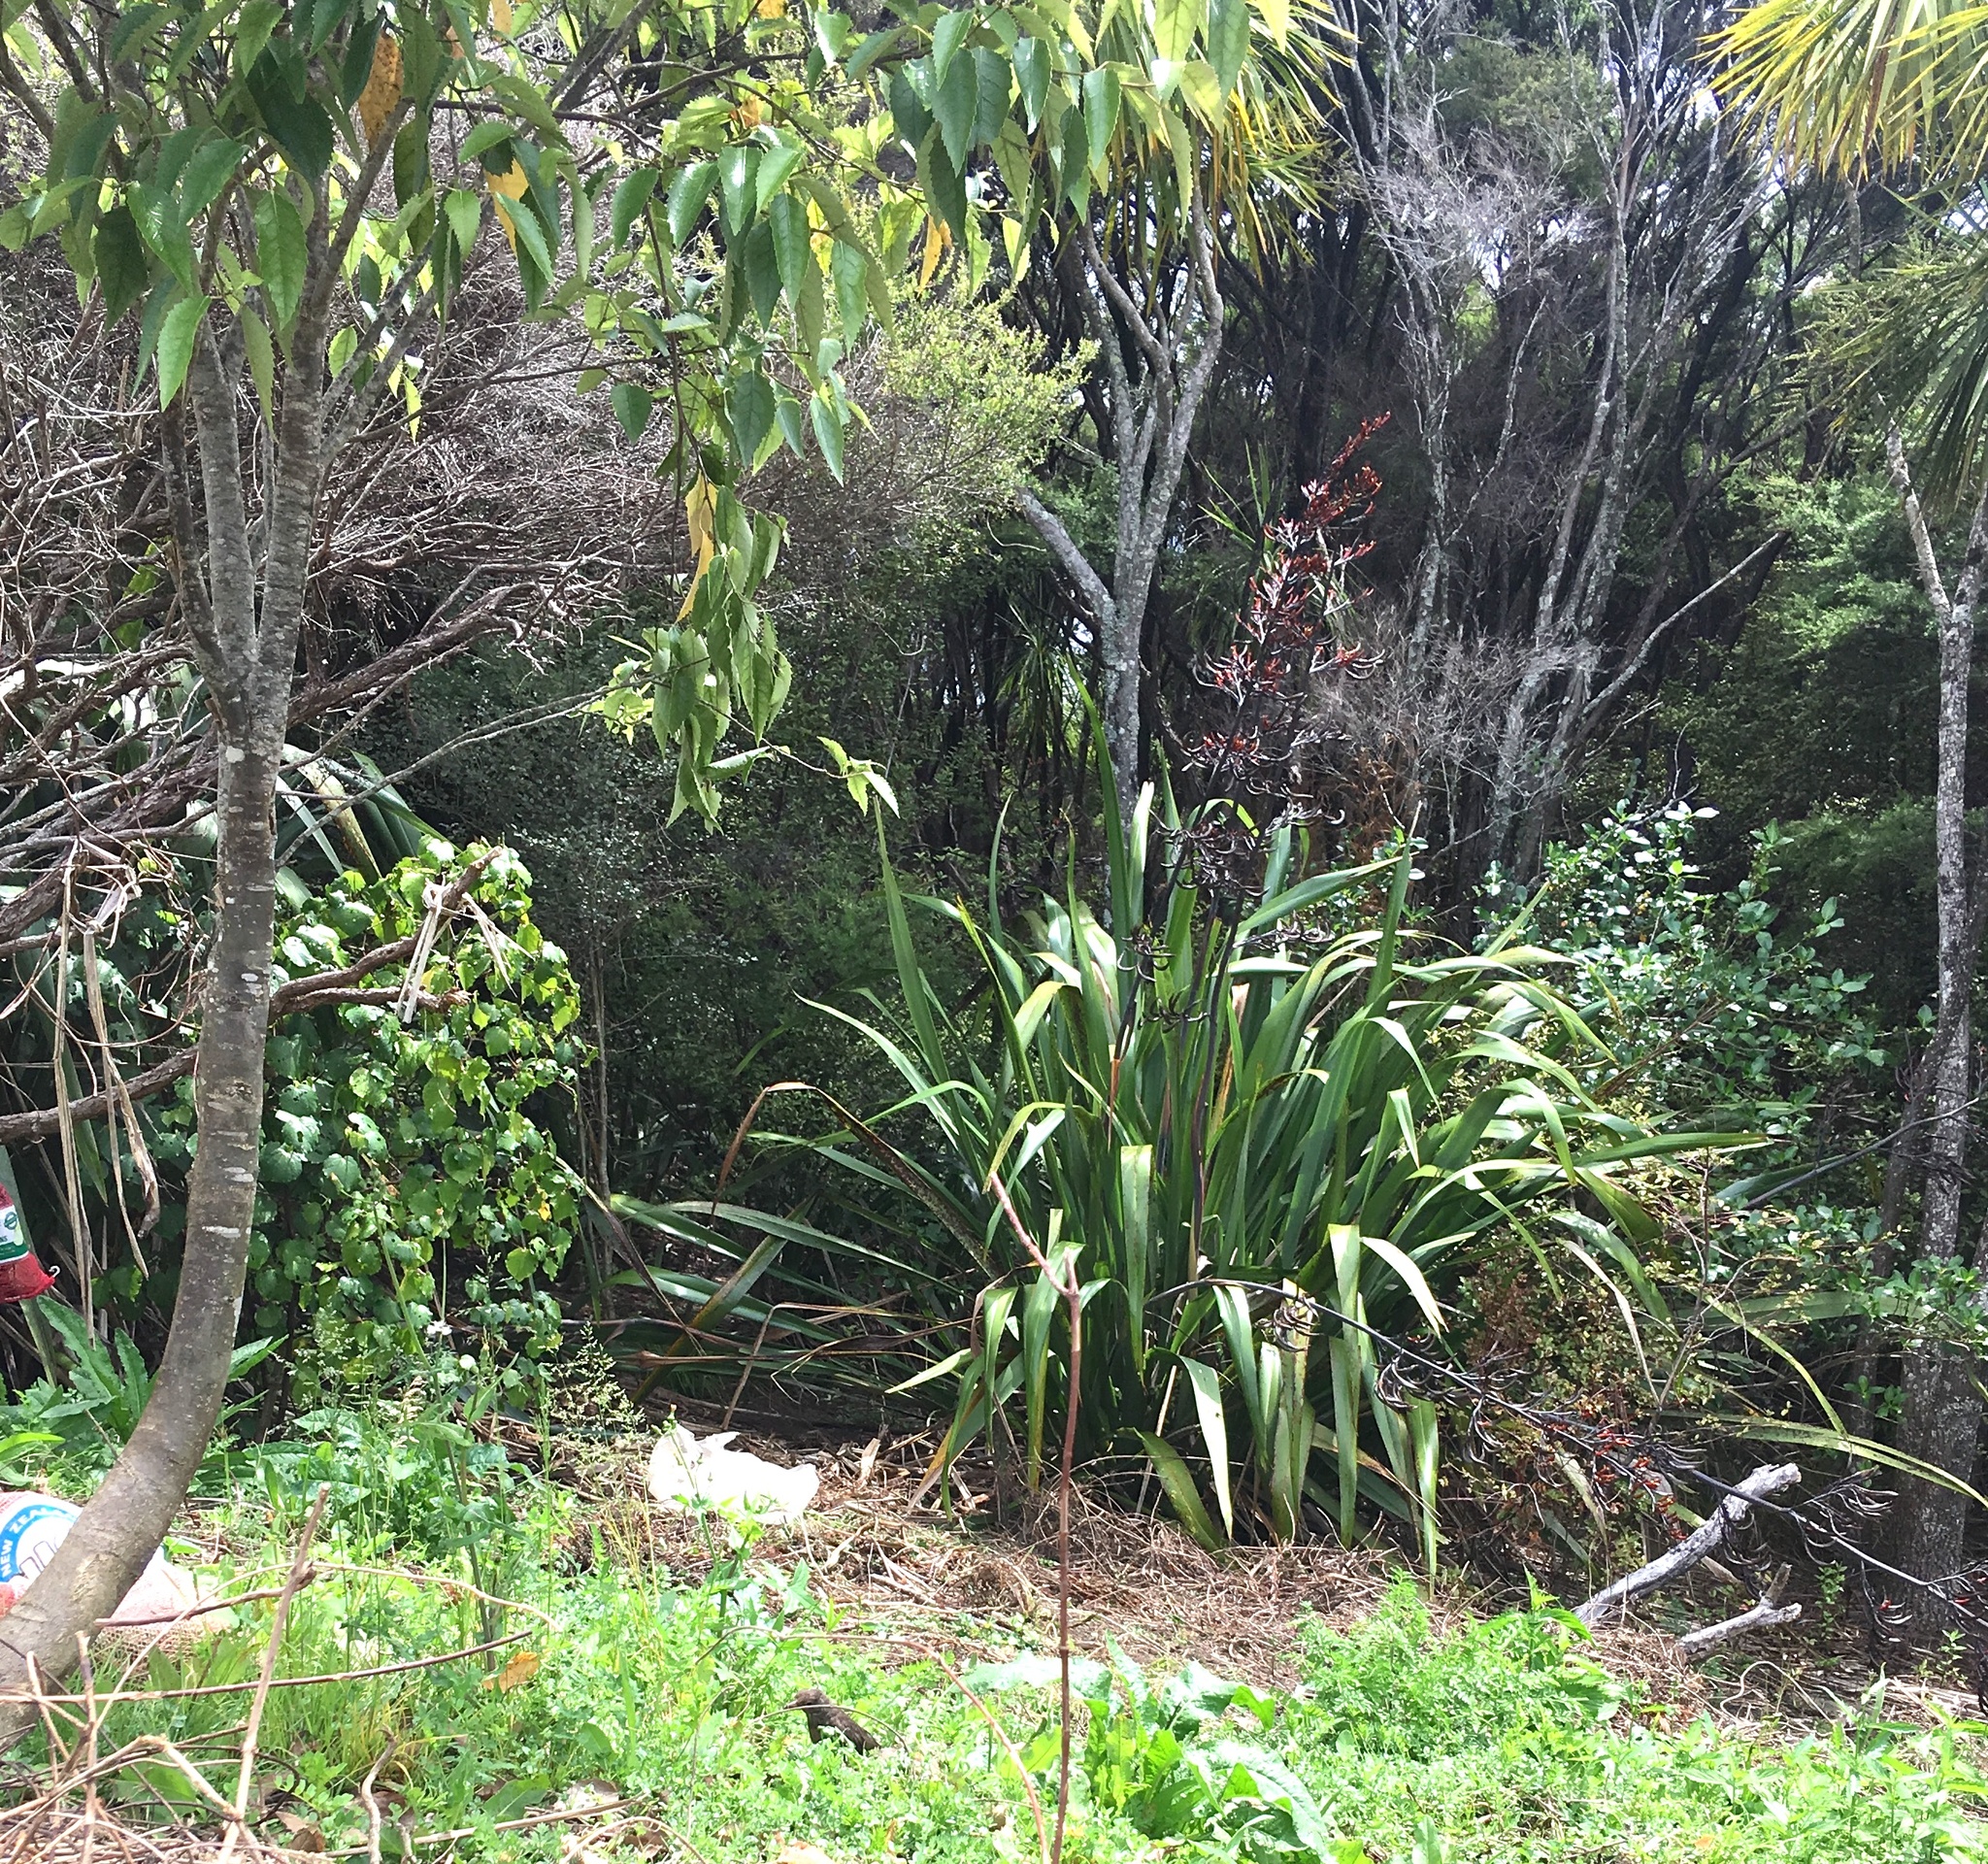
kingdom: Plantae
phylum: Tracheophyta
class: Magnoliopsida
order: Piperales
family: Piperaceae
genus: Macropiper
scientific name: Macropiper excelsum
